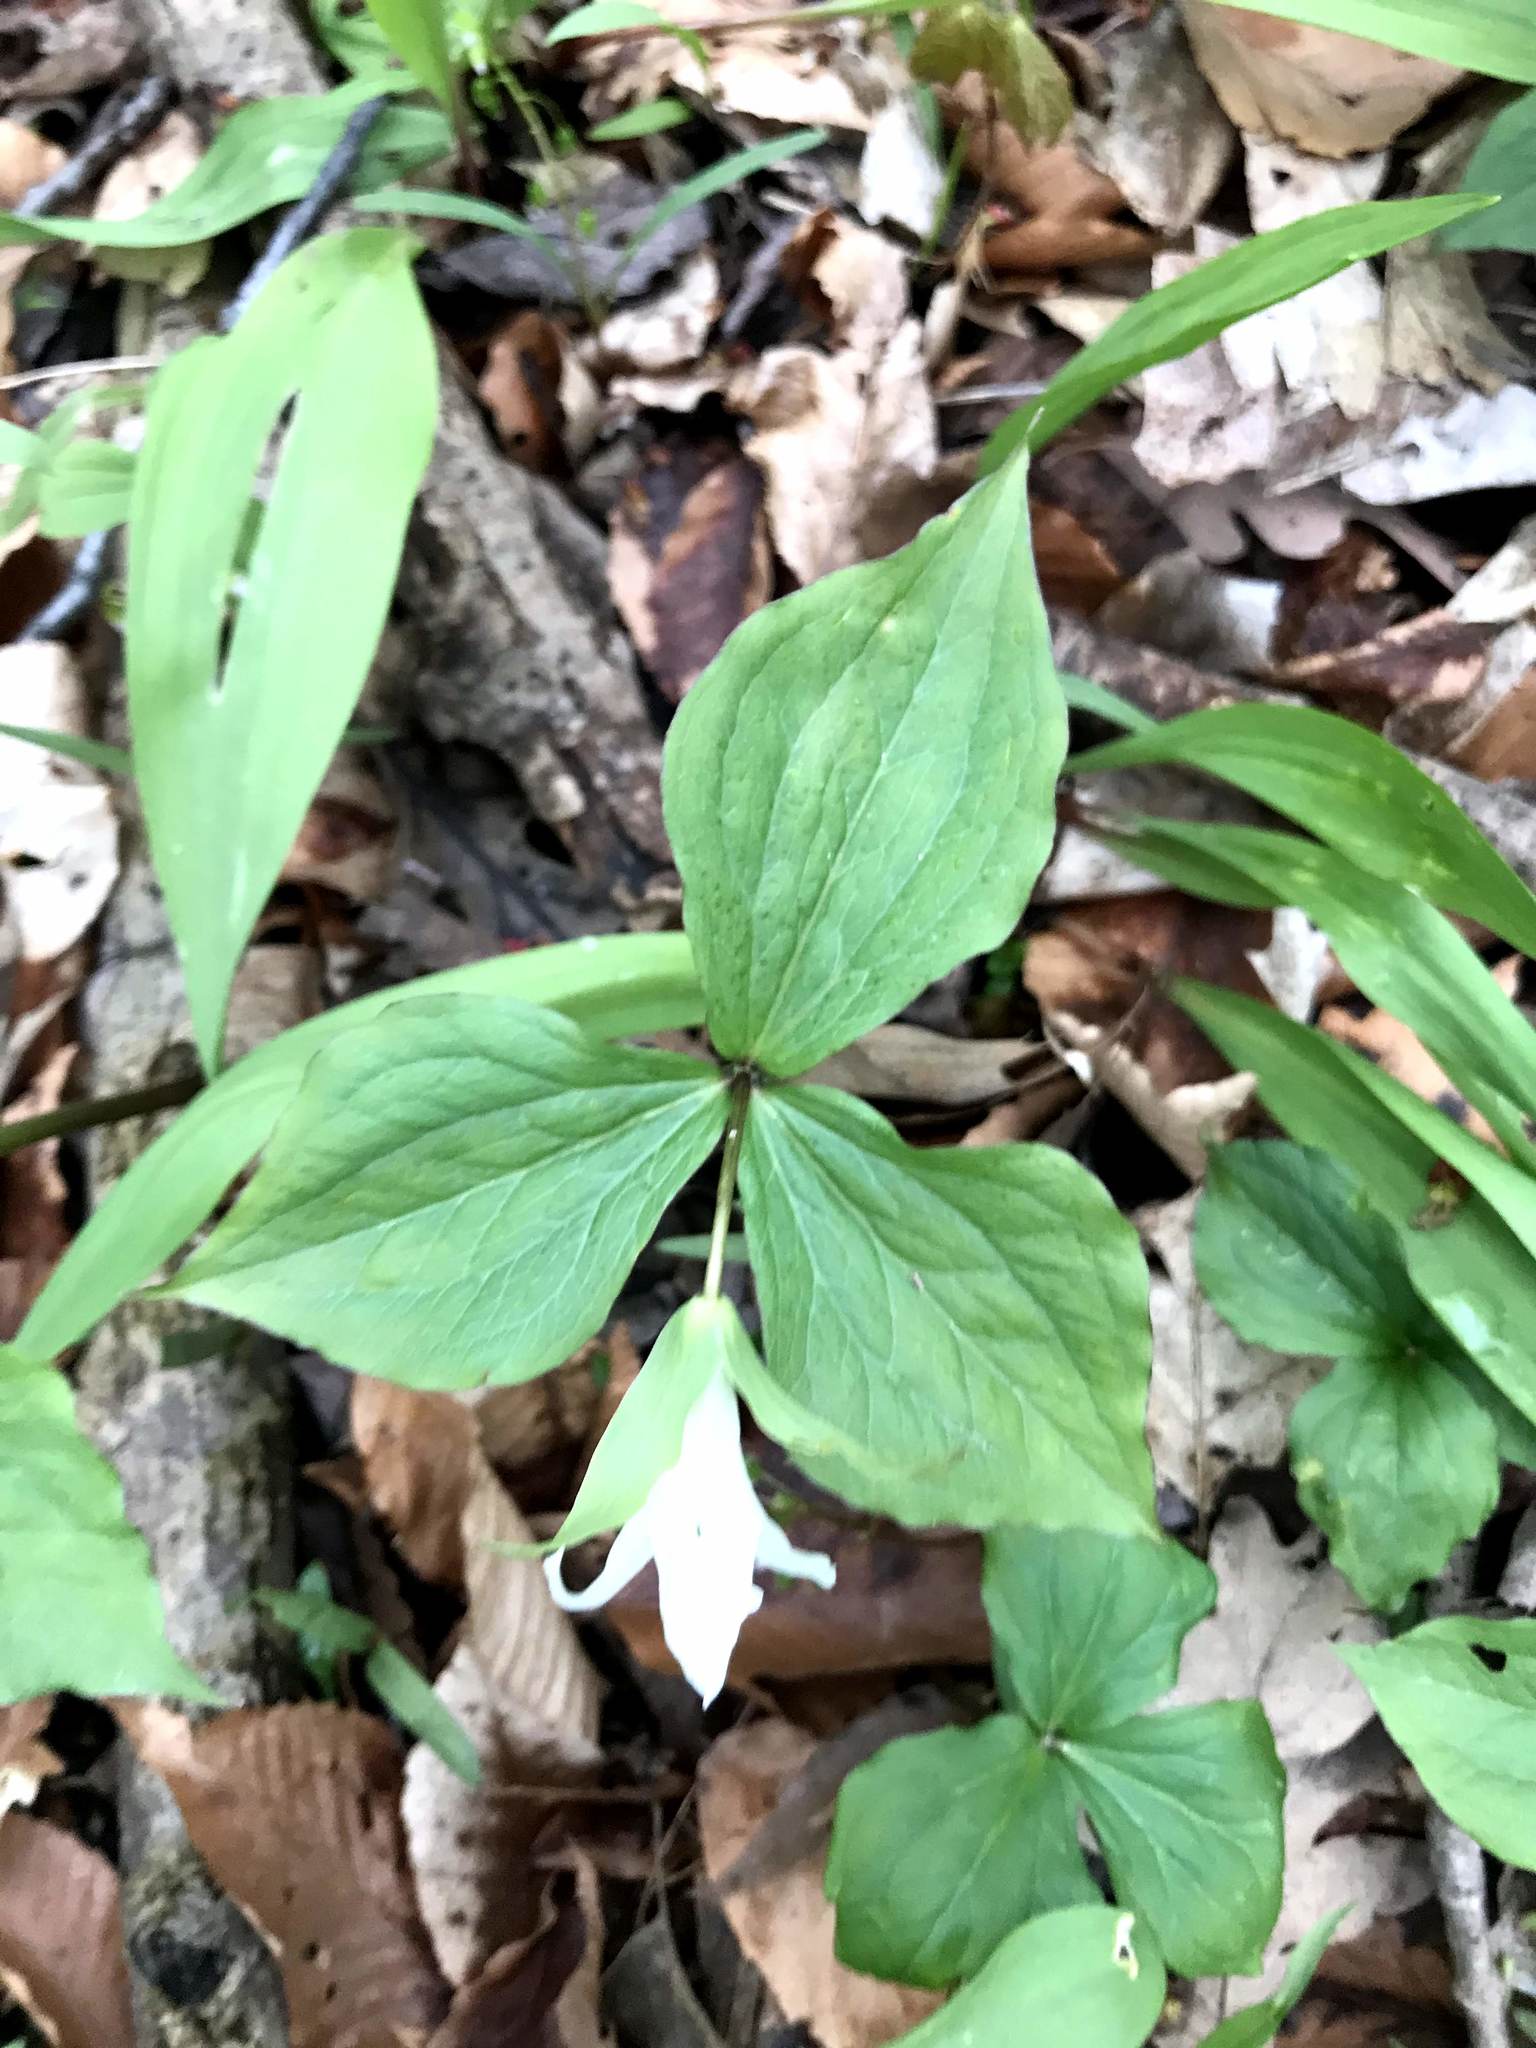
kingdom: Plantae
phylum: Tracheophyta
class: Liliopsida
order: Liliales
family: Melanthiaceae
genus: Trillium
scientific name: Trillium grandiflorum
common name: Great white trillium
